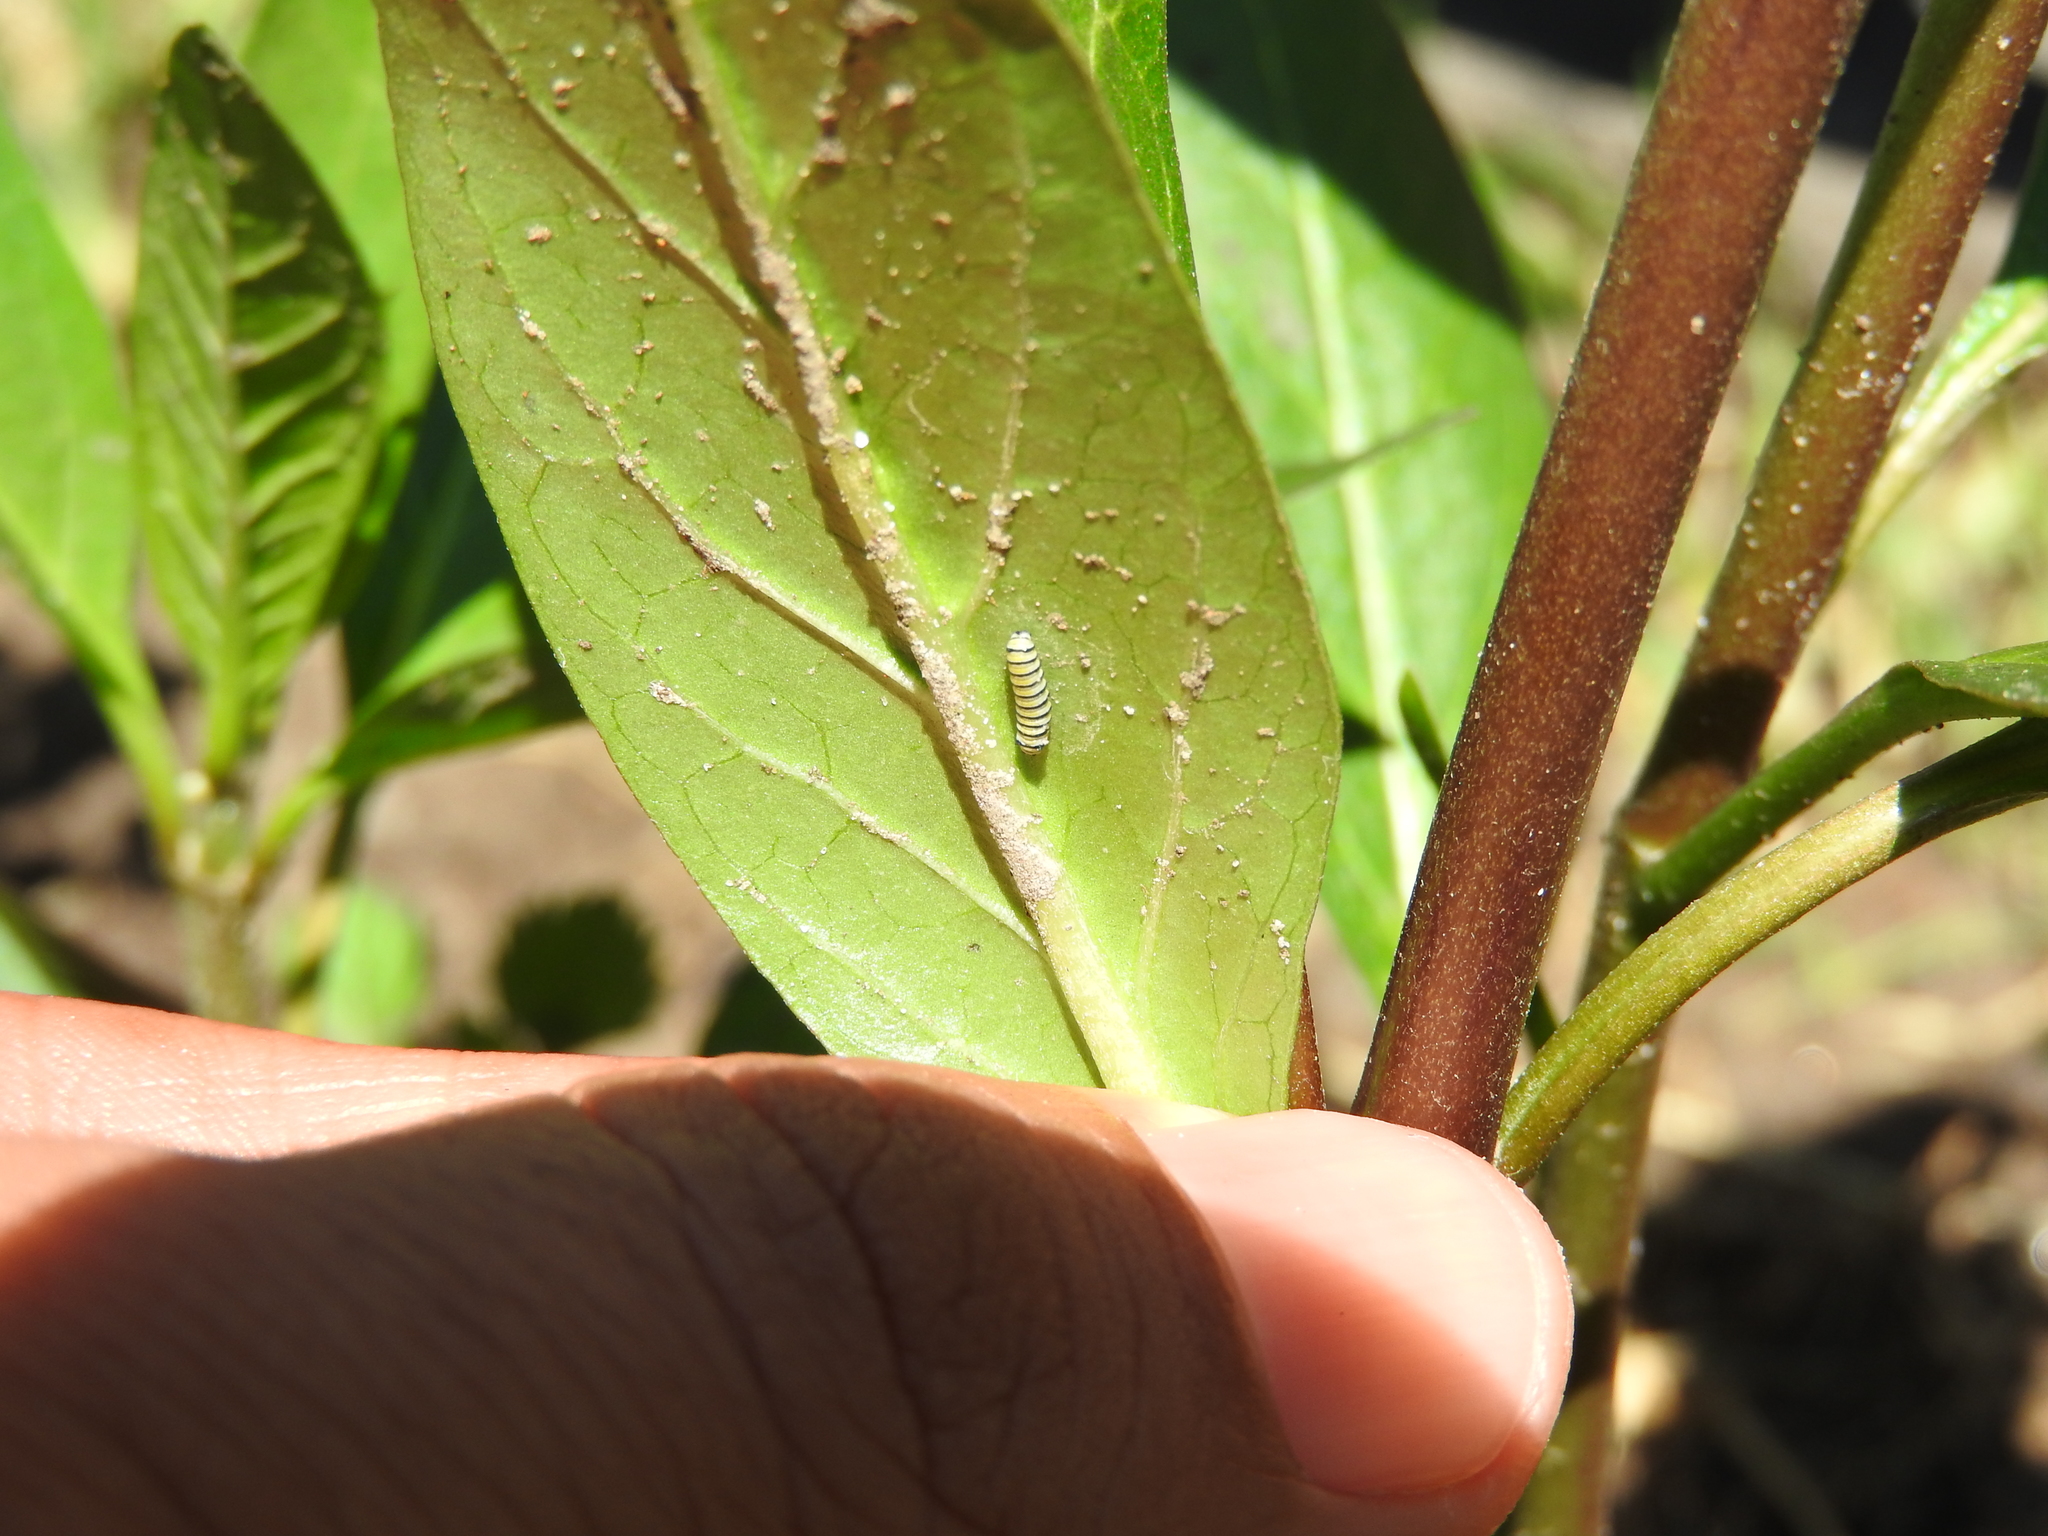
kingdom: Animalia
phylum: Arthropoda
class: Insecta
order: Lepidoptera
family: Nymphalidae
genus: Danaus
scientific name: Danaus plexippus
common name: Monarch
